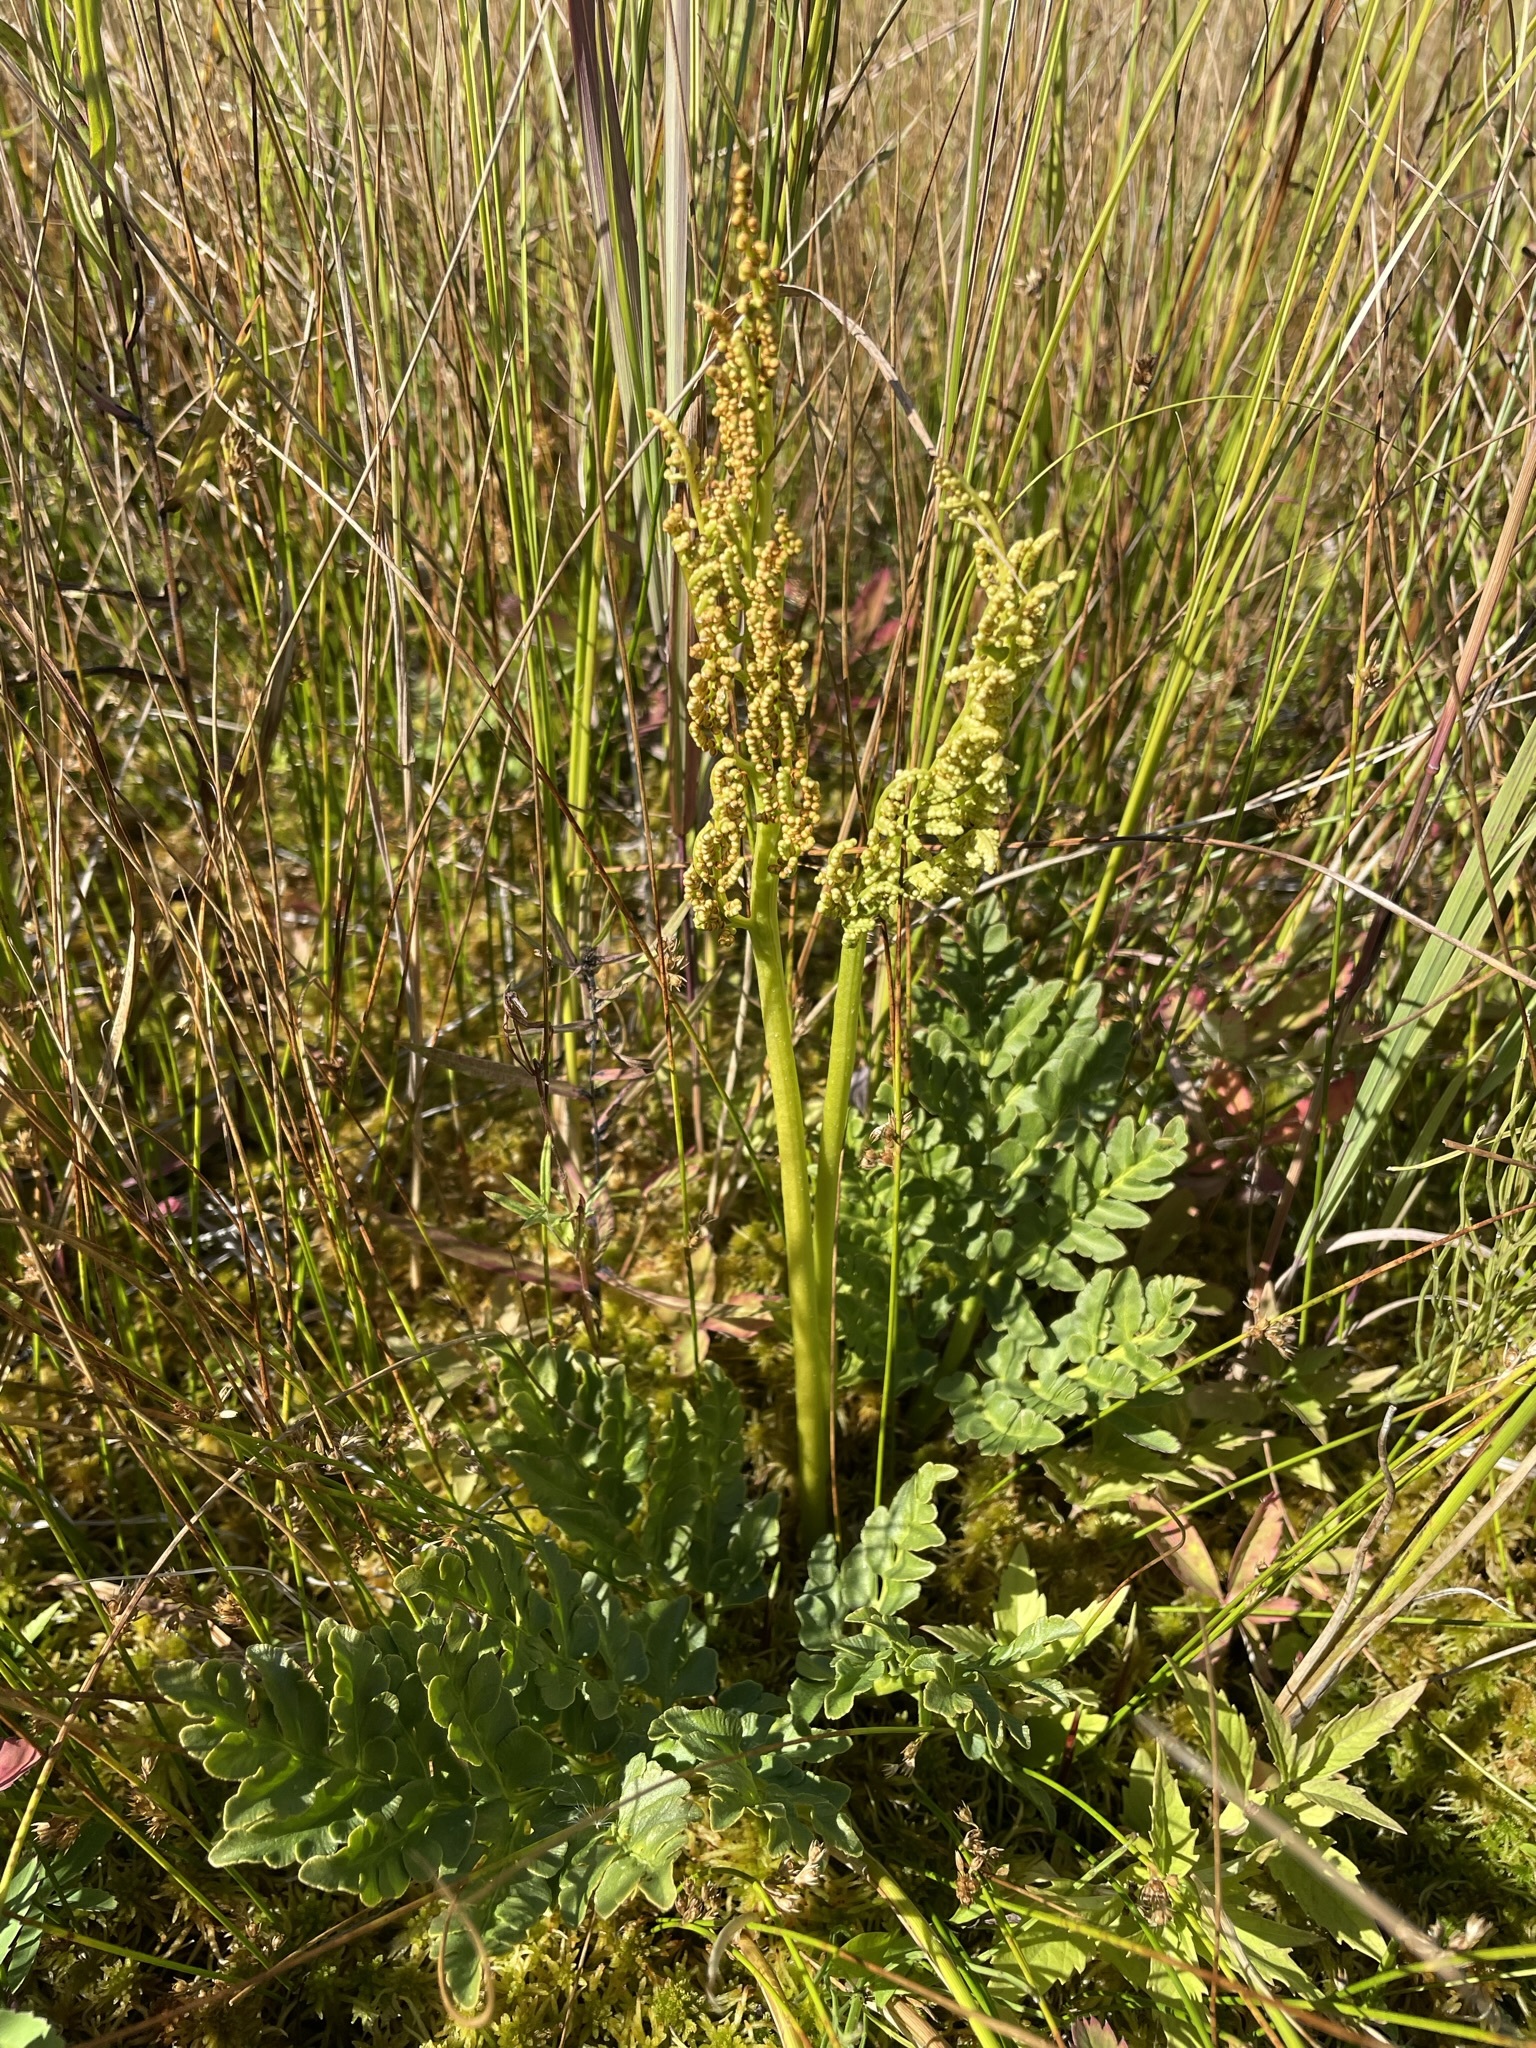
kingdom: Plantae
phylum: Tracheophyta
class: Polypodiopsida
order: Ophioglossales
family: Ophioglossaceae
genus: Sceptridium
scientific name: Sceptridium multifidum
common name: Leathery grape fern
